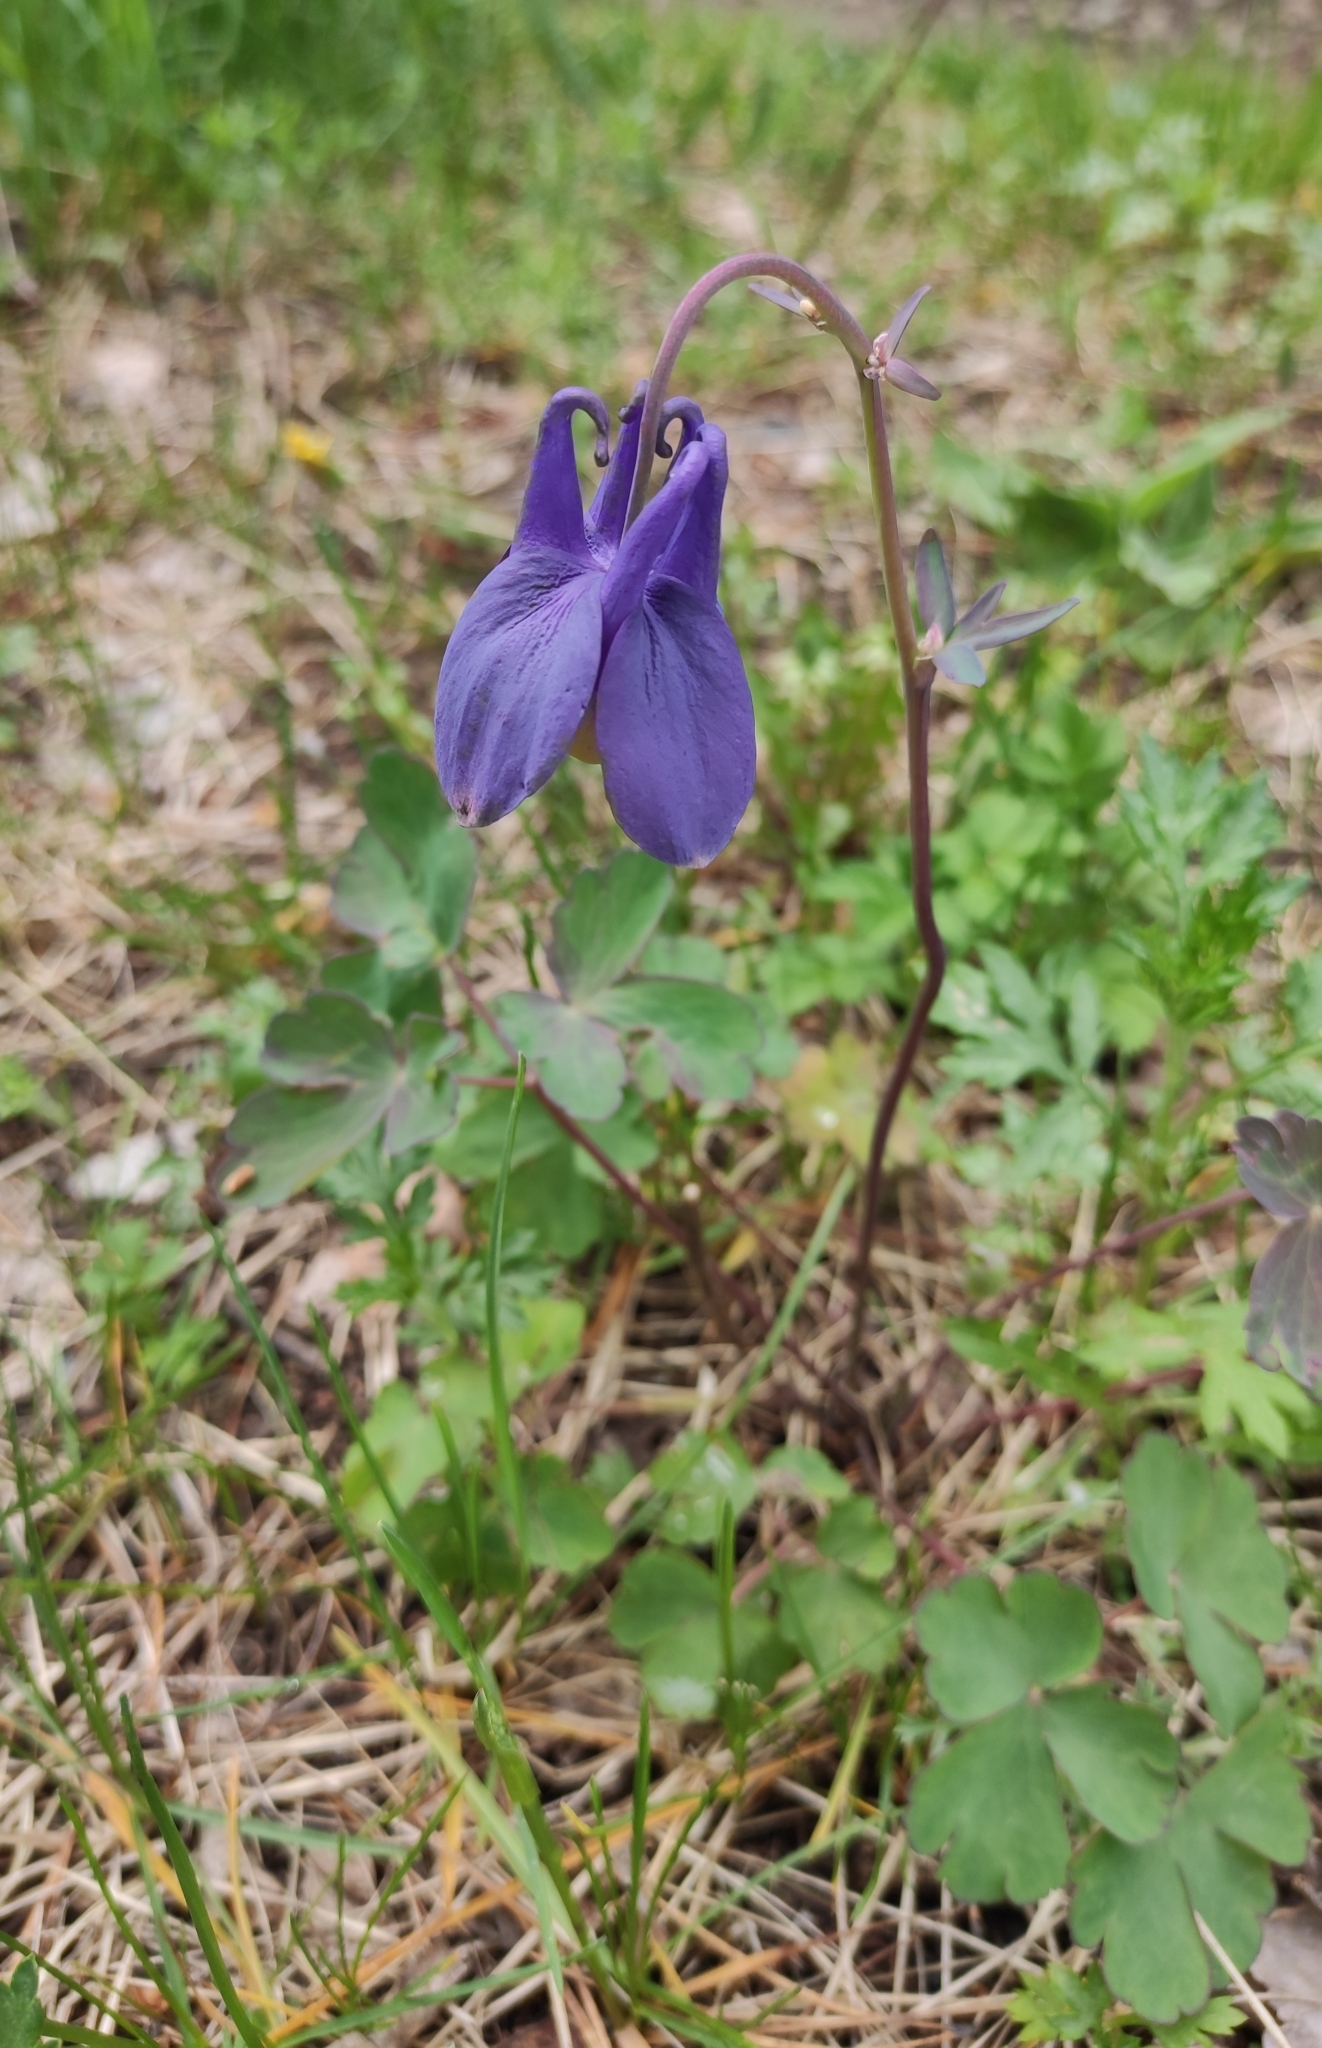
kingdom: Plantae
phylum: Tracheophyta
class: Magnoliopsida
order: Ranunculales
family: Ranunculaceae
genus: Aquilegia
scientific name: Aquilegia sibirica
